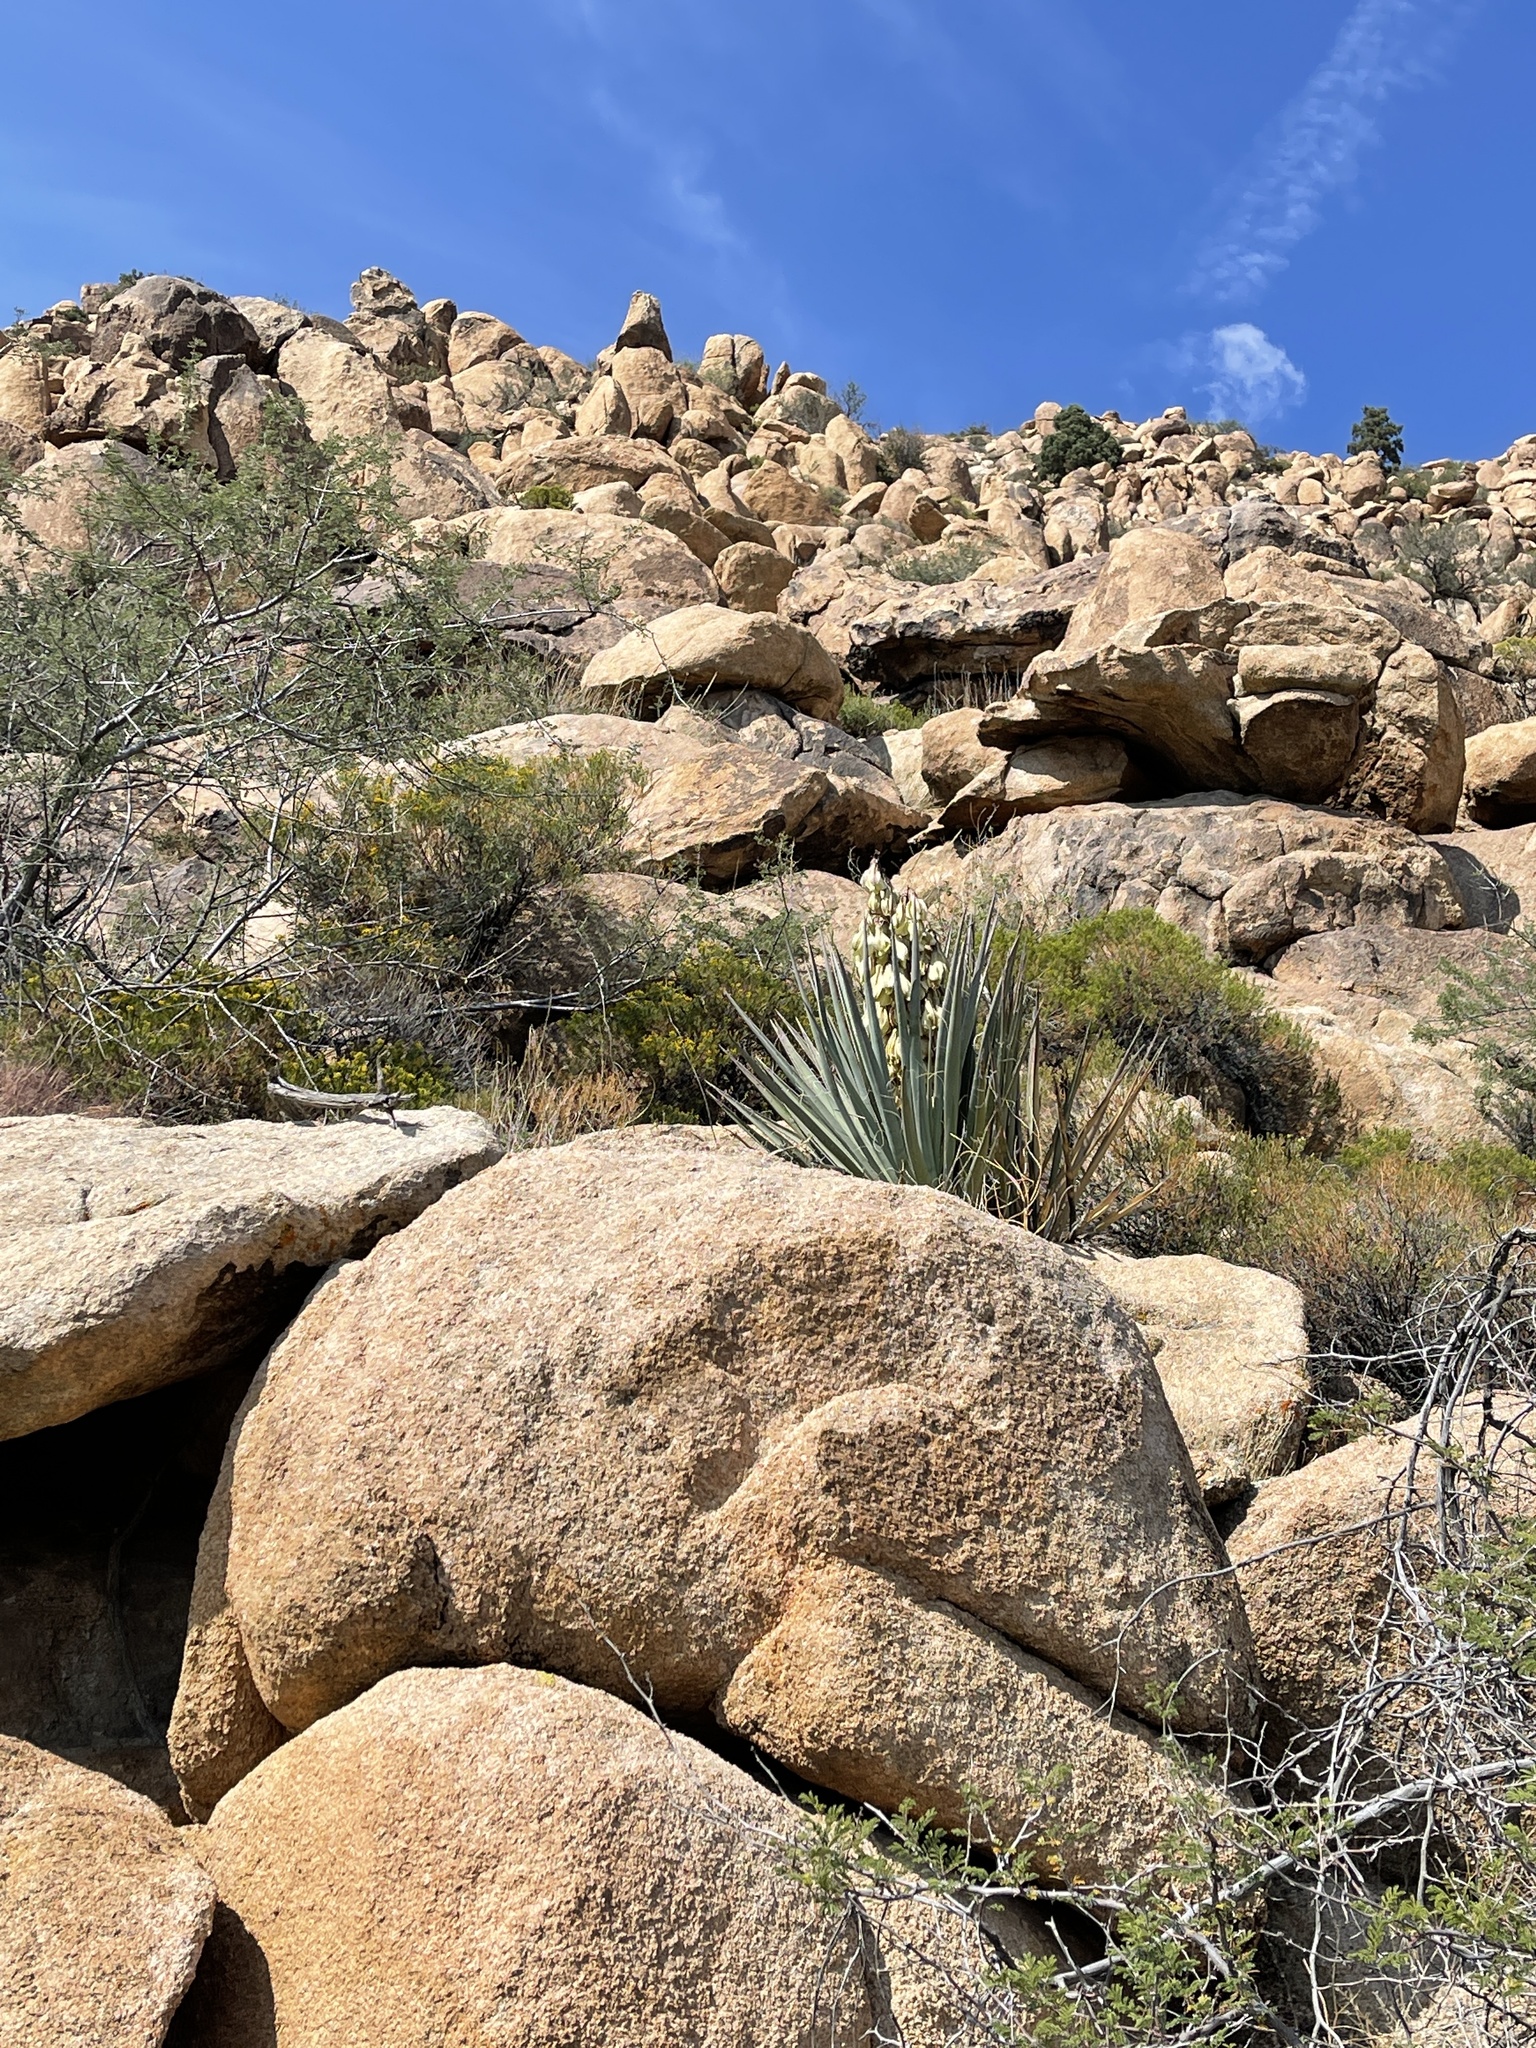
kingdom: Plantae
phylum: Tracheophyta
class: Liliopsida
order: Asparagales
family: Asparagaceae
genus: Yucca
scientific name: Yucca baccata
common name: Banana yucca
